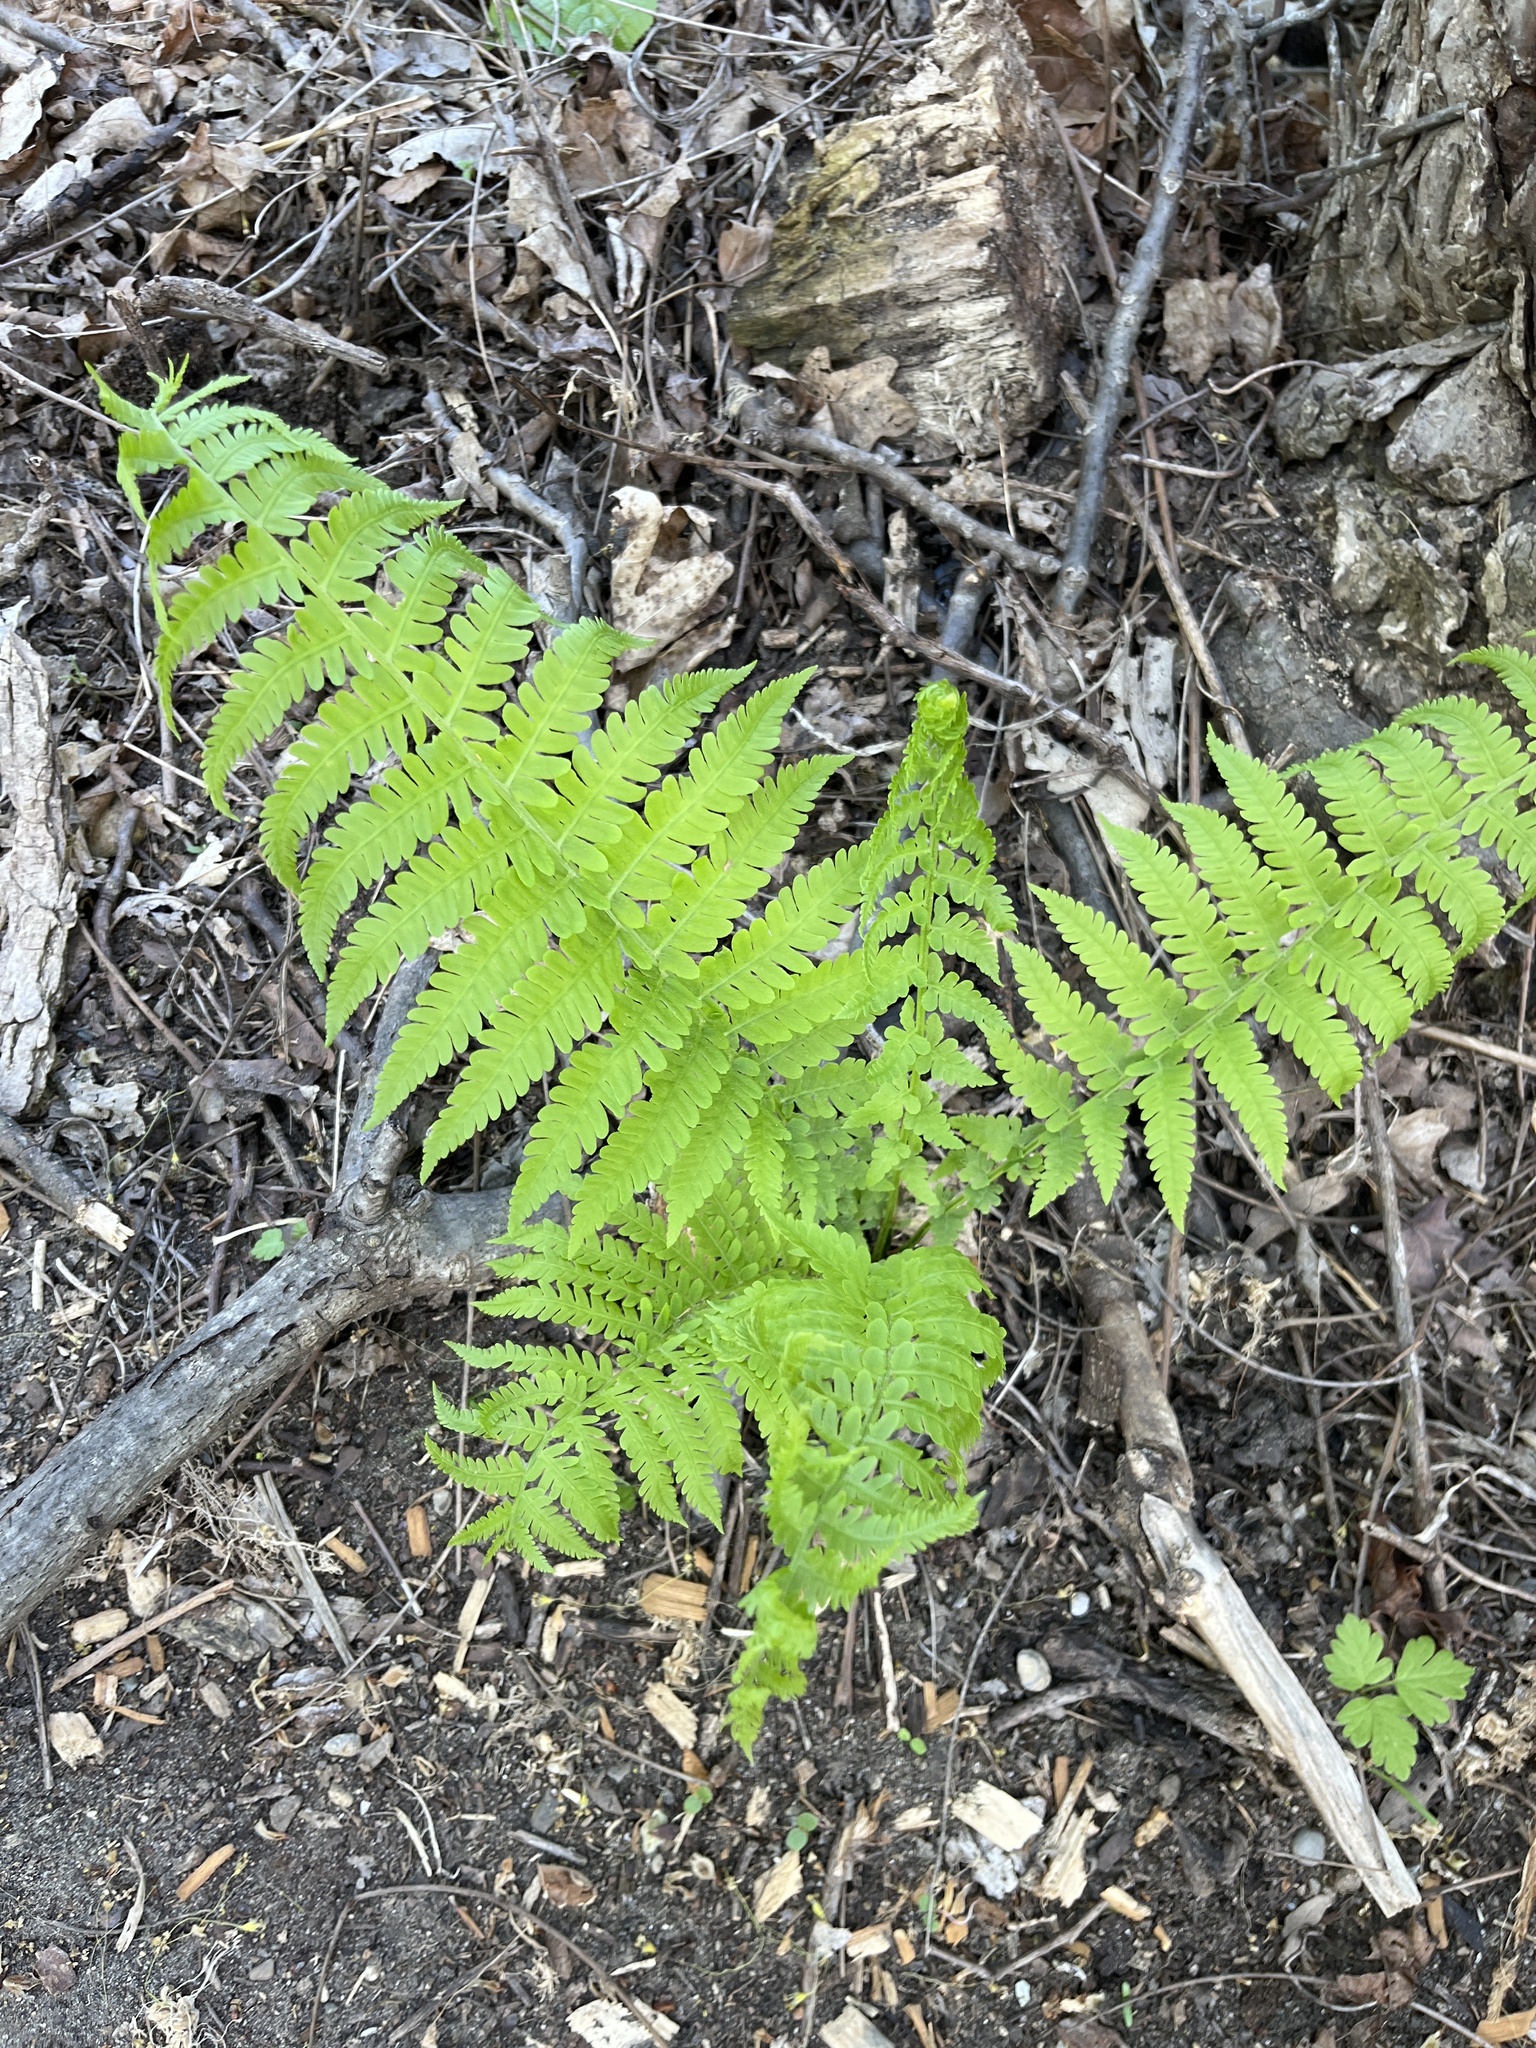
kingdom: Plantae
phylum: Tracheophyta
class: Polypodiopsida
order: Polypodiales
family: Onocleaceae
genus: Matteuccia
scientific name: Matteuccia struthiopteris
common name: Ostrich fern
